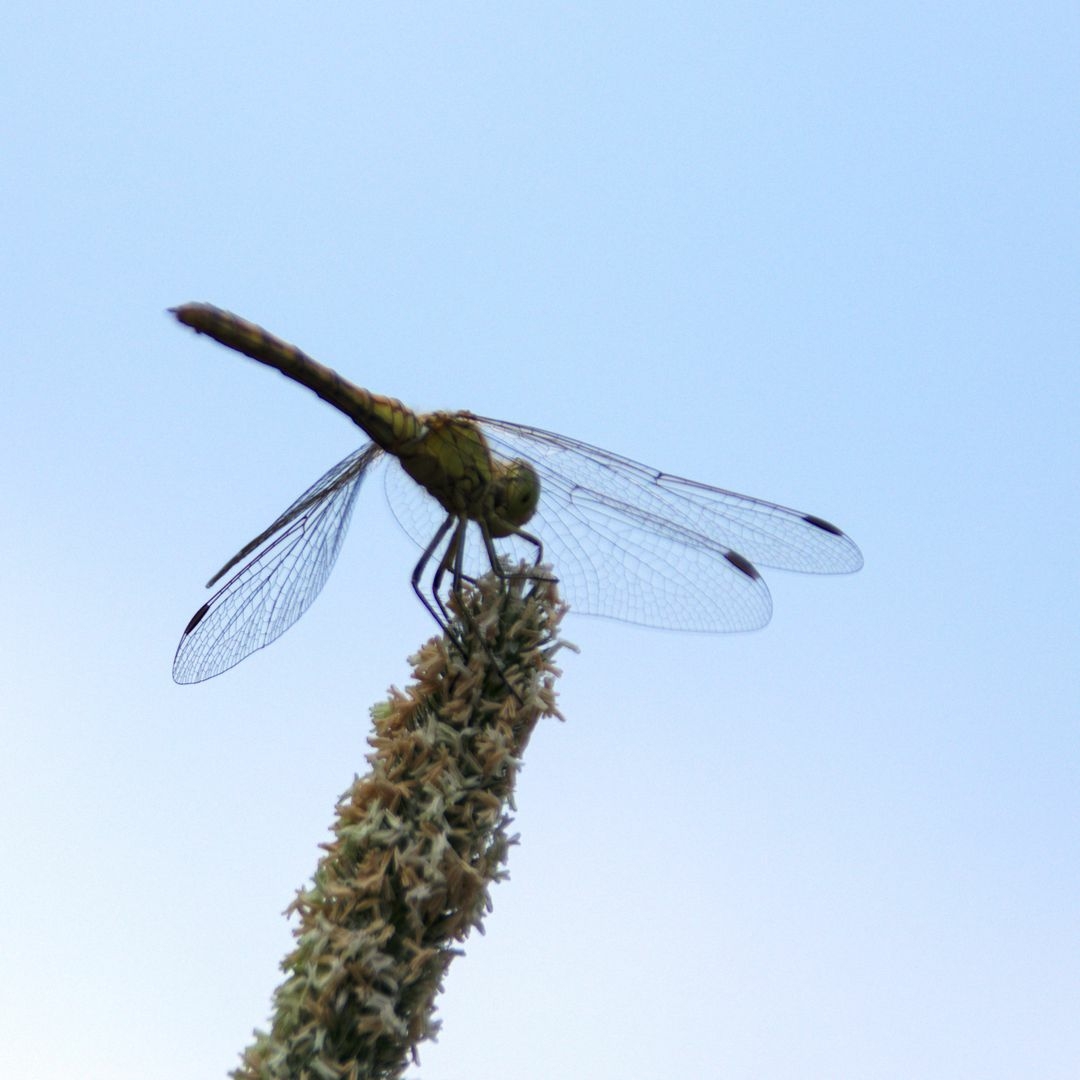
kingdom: Animalia
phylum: Arthropoda
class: Insecta
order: Odonata
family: Libellulidae
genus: Sympetrum
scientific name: Sympetrum vulgatum
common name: Vagrant darter
